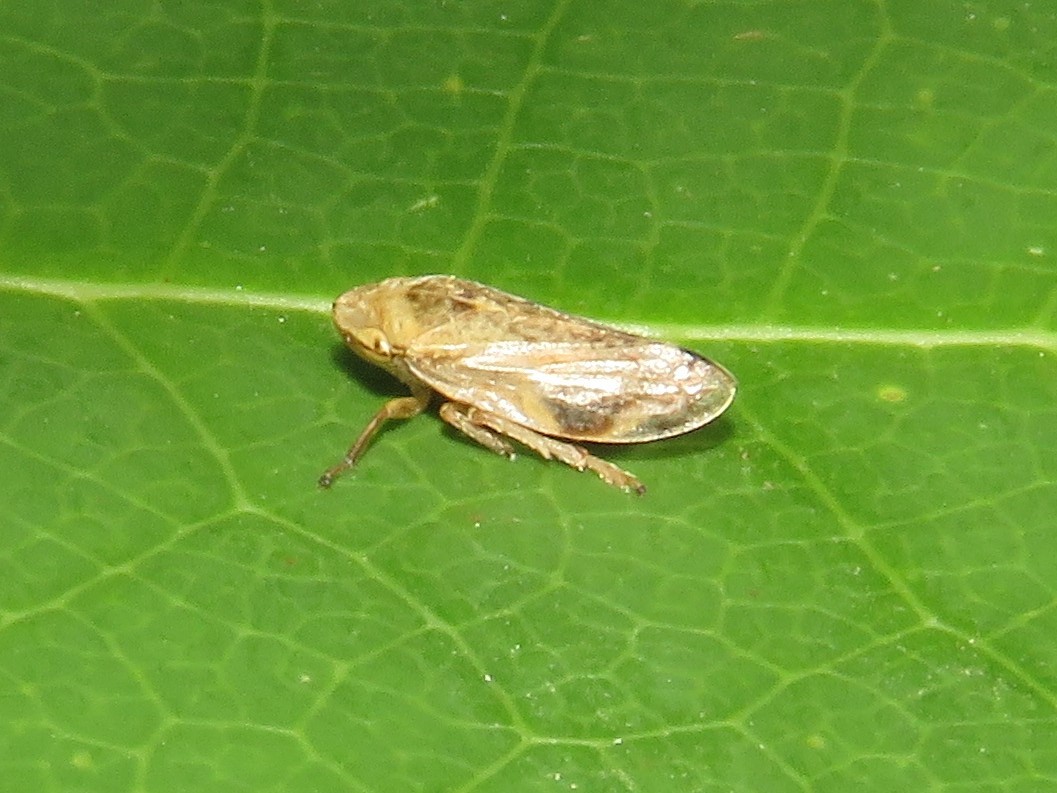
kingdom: Animalia
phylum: Arthropoda
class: Insecta
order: Hemiptera
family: Aphrophoridae
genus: Philaenus
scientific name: Philaenus spumarius
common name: Meadow spittlebug
